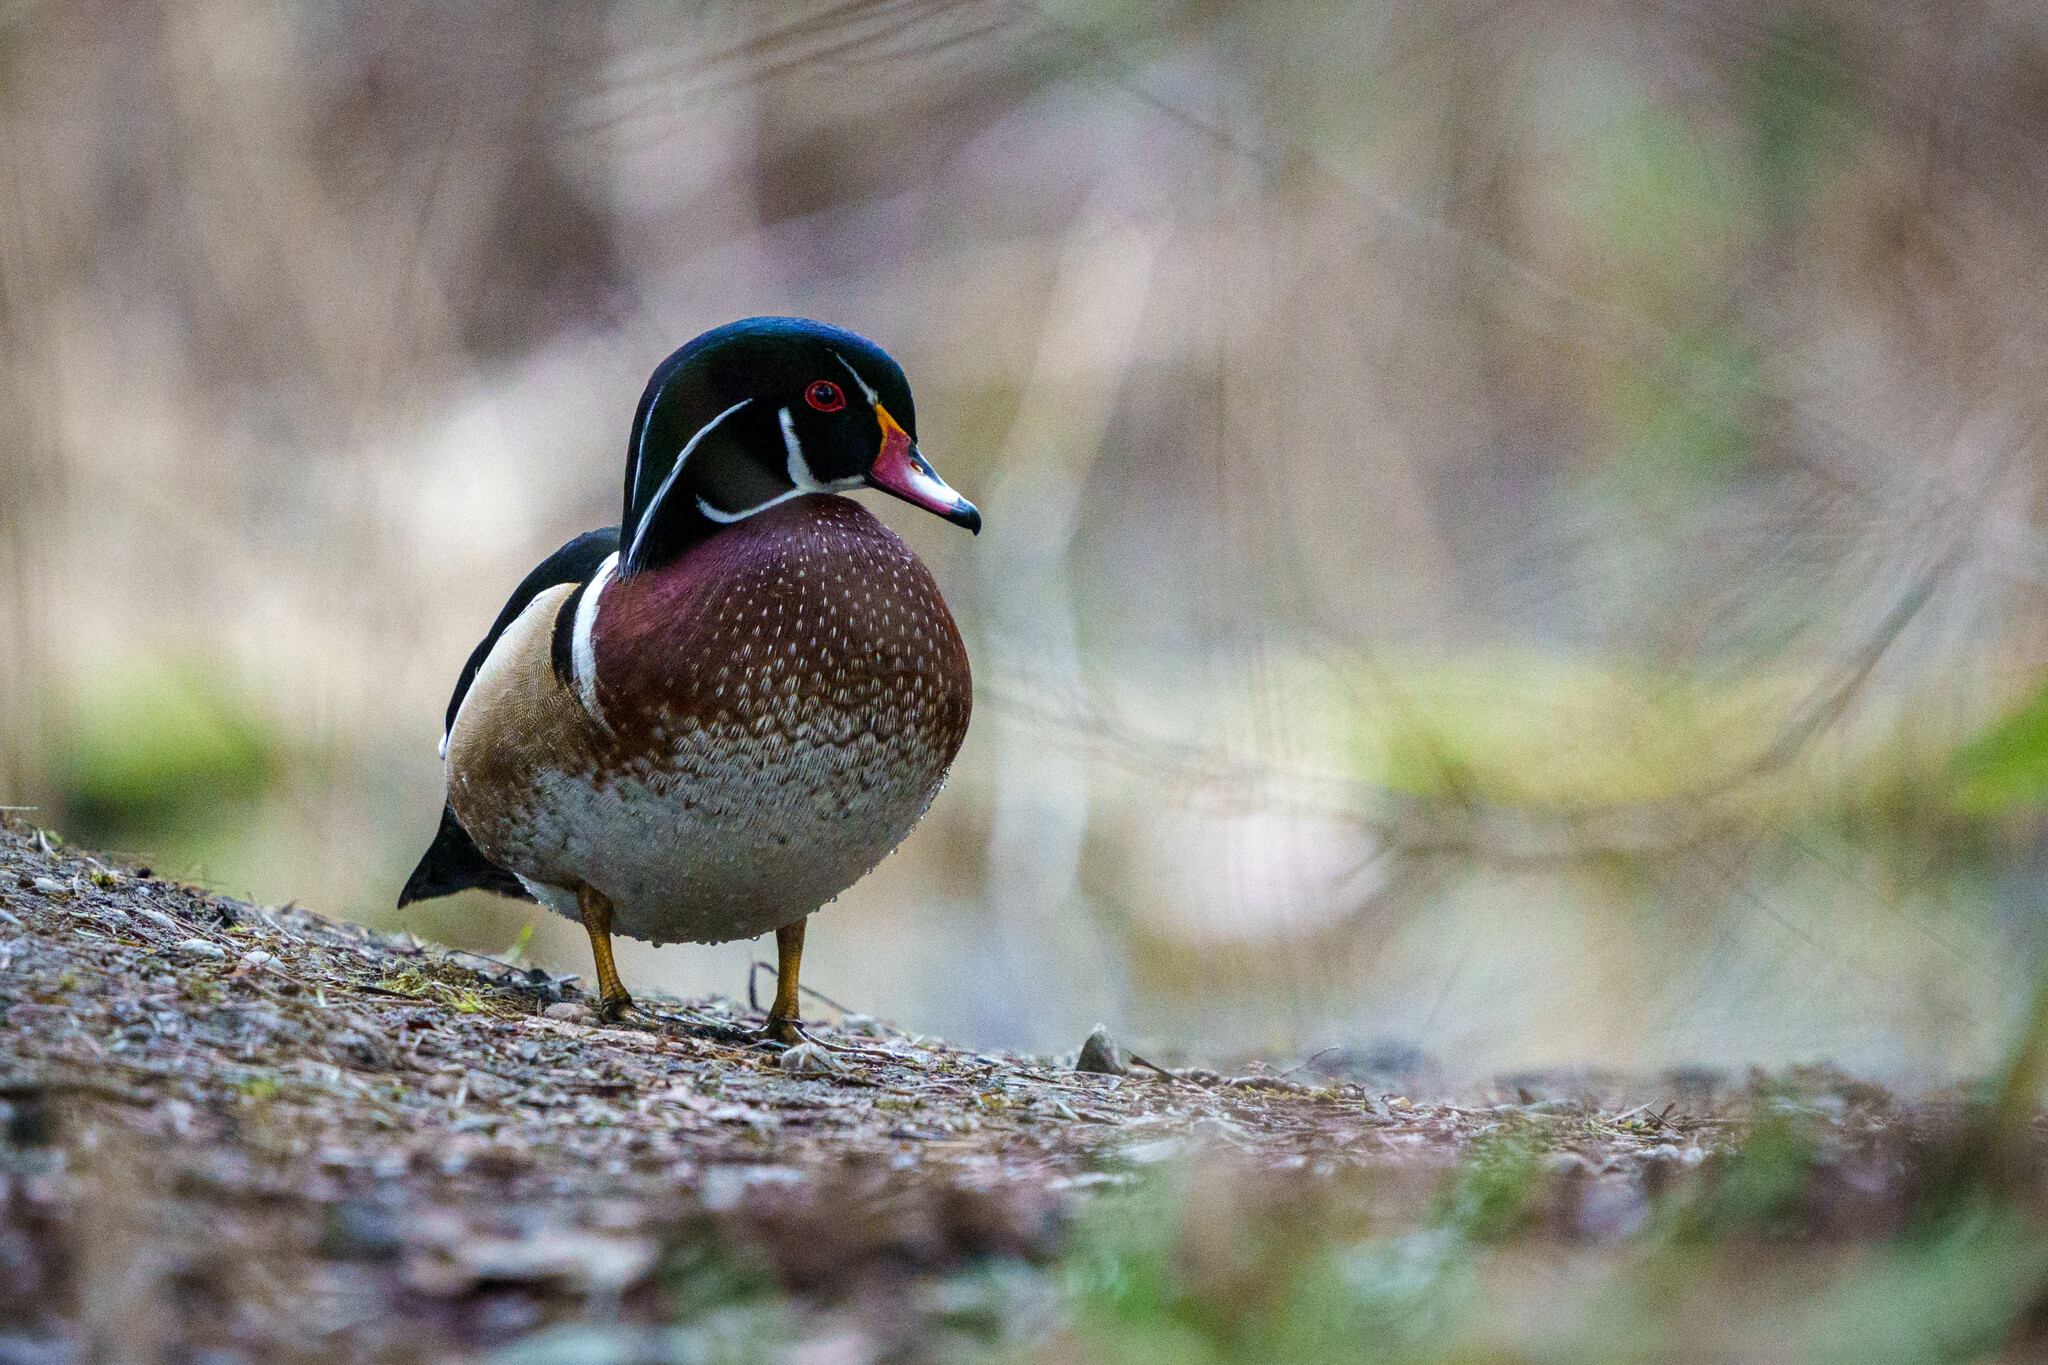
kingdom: Animalia
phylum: Chordata
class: Aves
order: Anseriformes
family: Anatidae
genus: Aix
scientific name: Aix sponsa
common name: Wood duck
